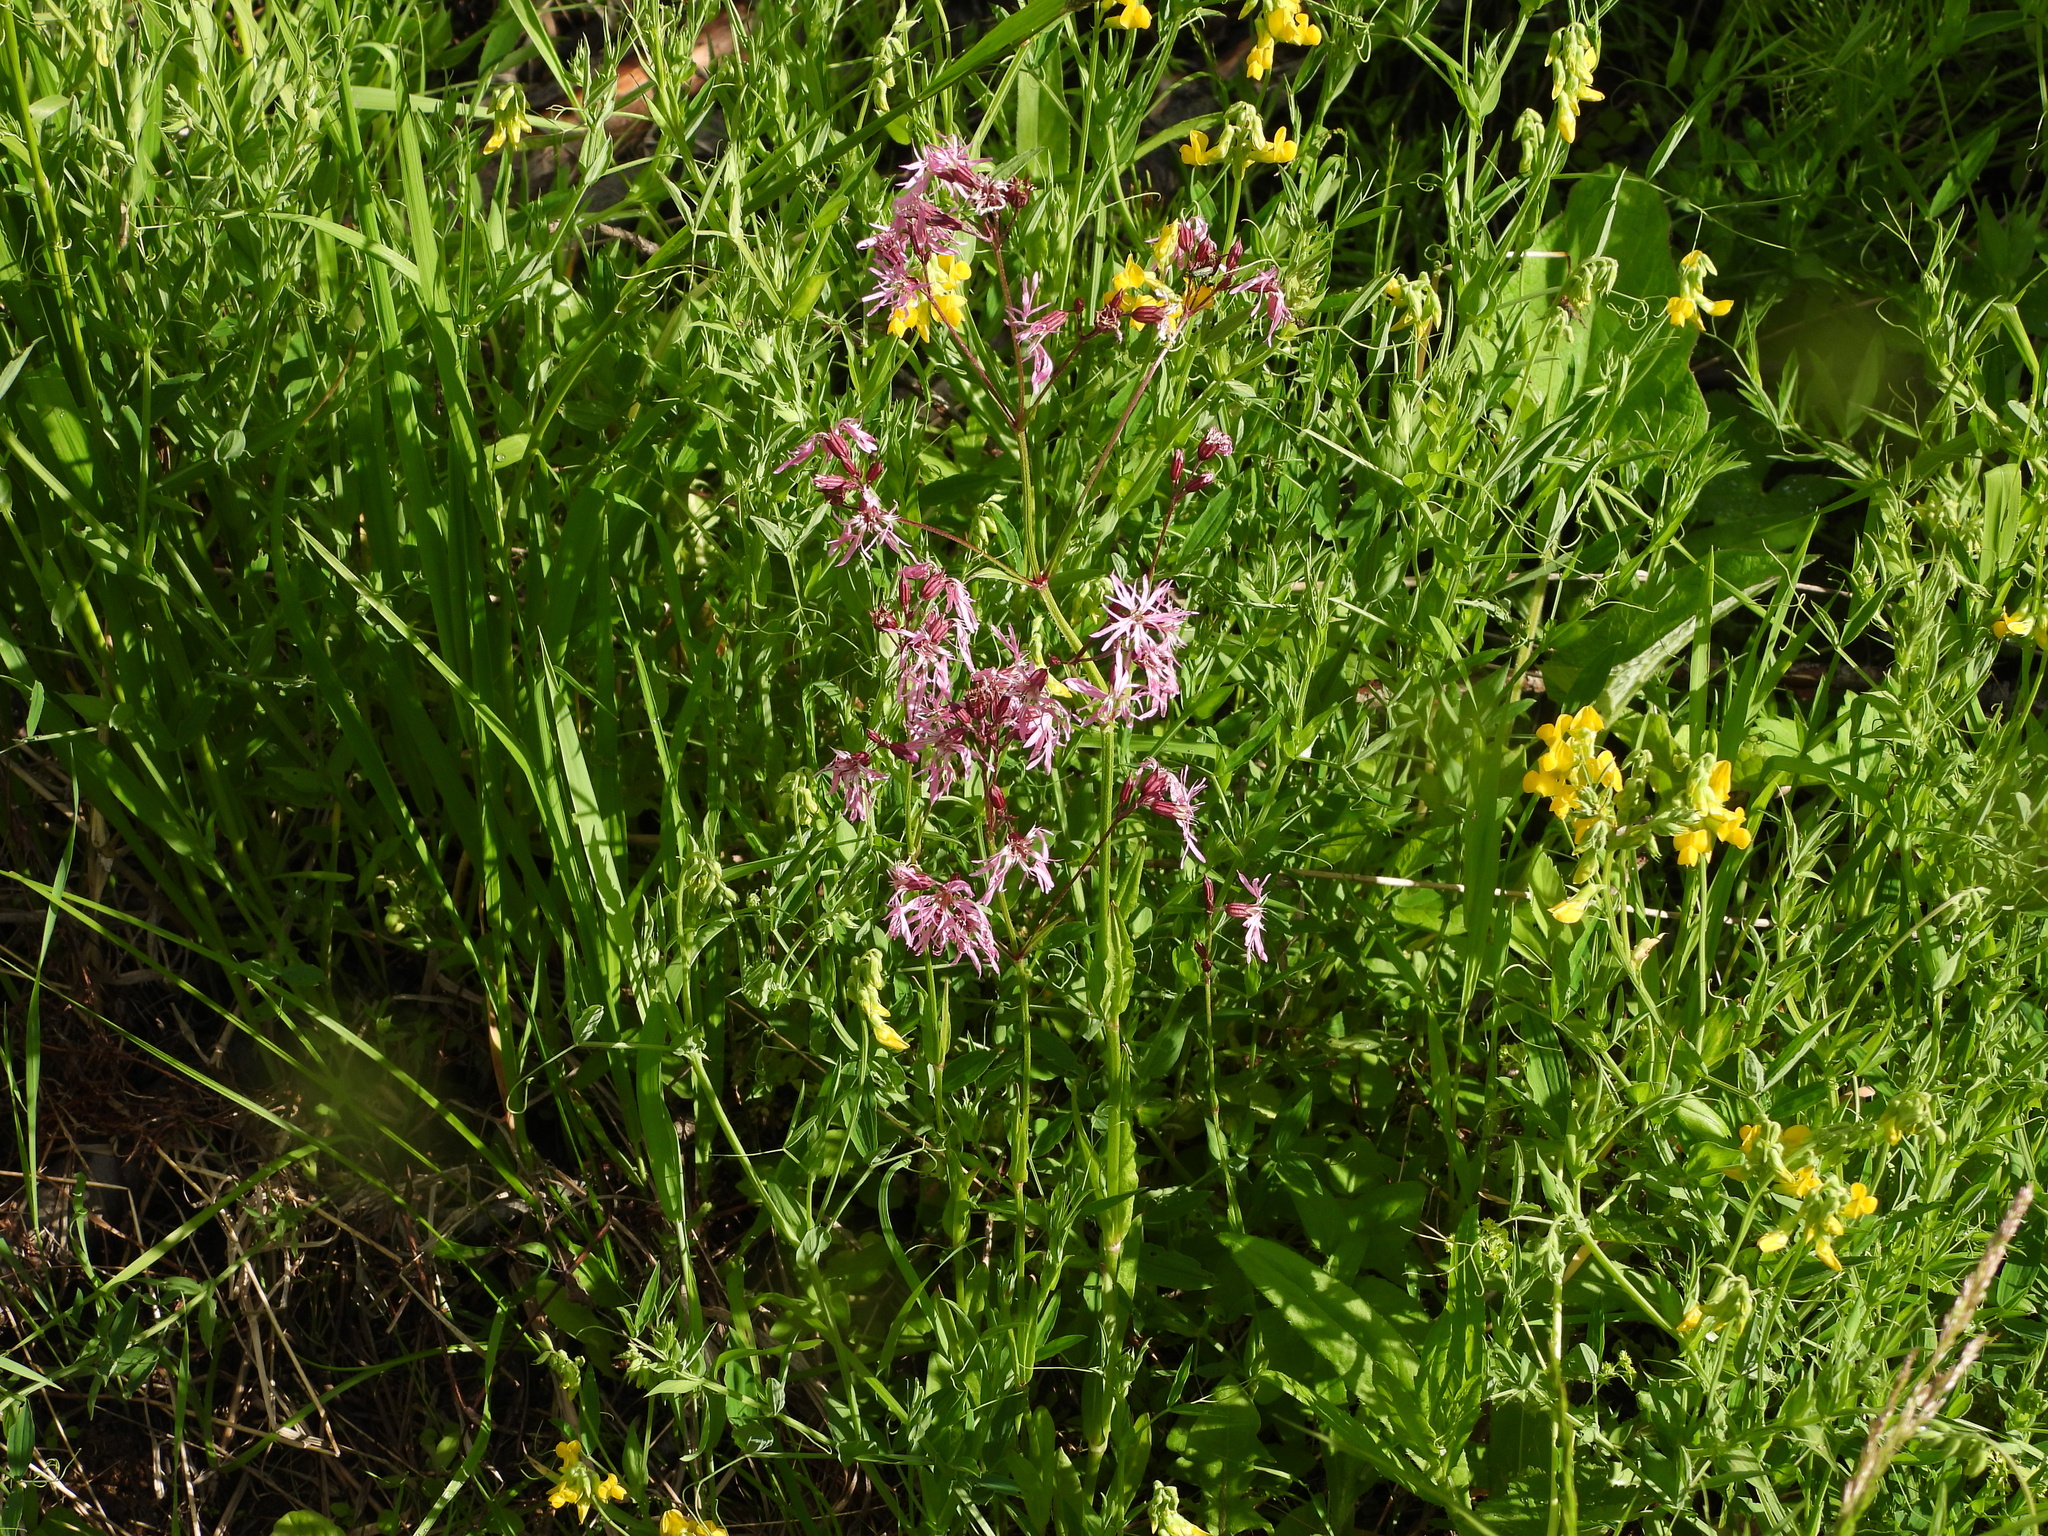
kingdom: Plantae
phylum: Tracheophyta
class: Magnoliopsida
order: Caryophyllales
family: Caryophyllaceae
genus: Silene
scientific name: Silene flos-cuculi
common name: Ragged-robin
